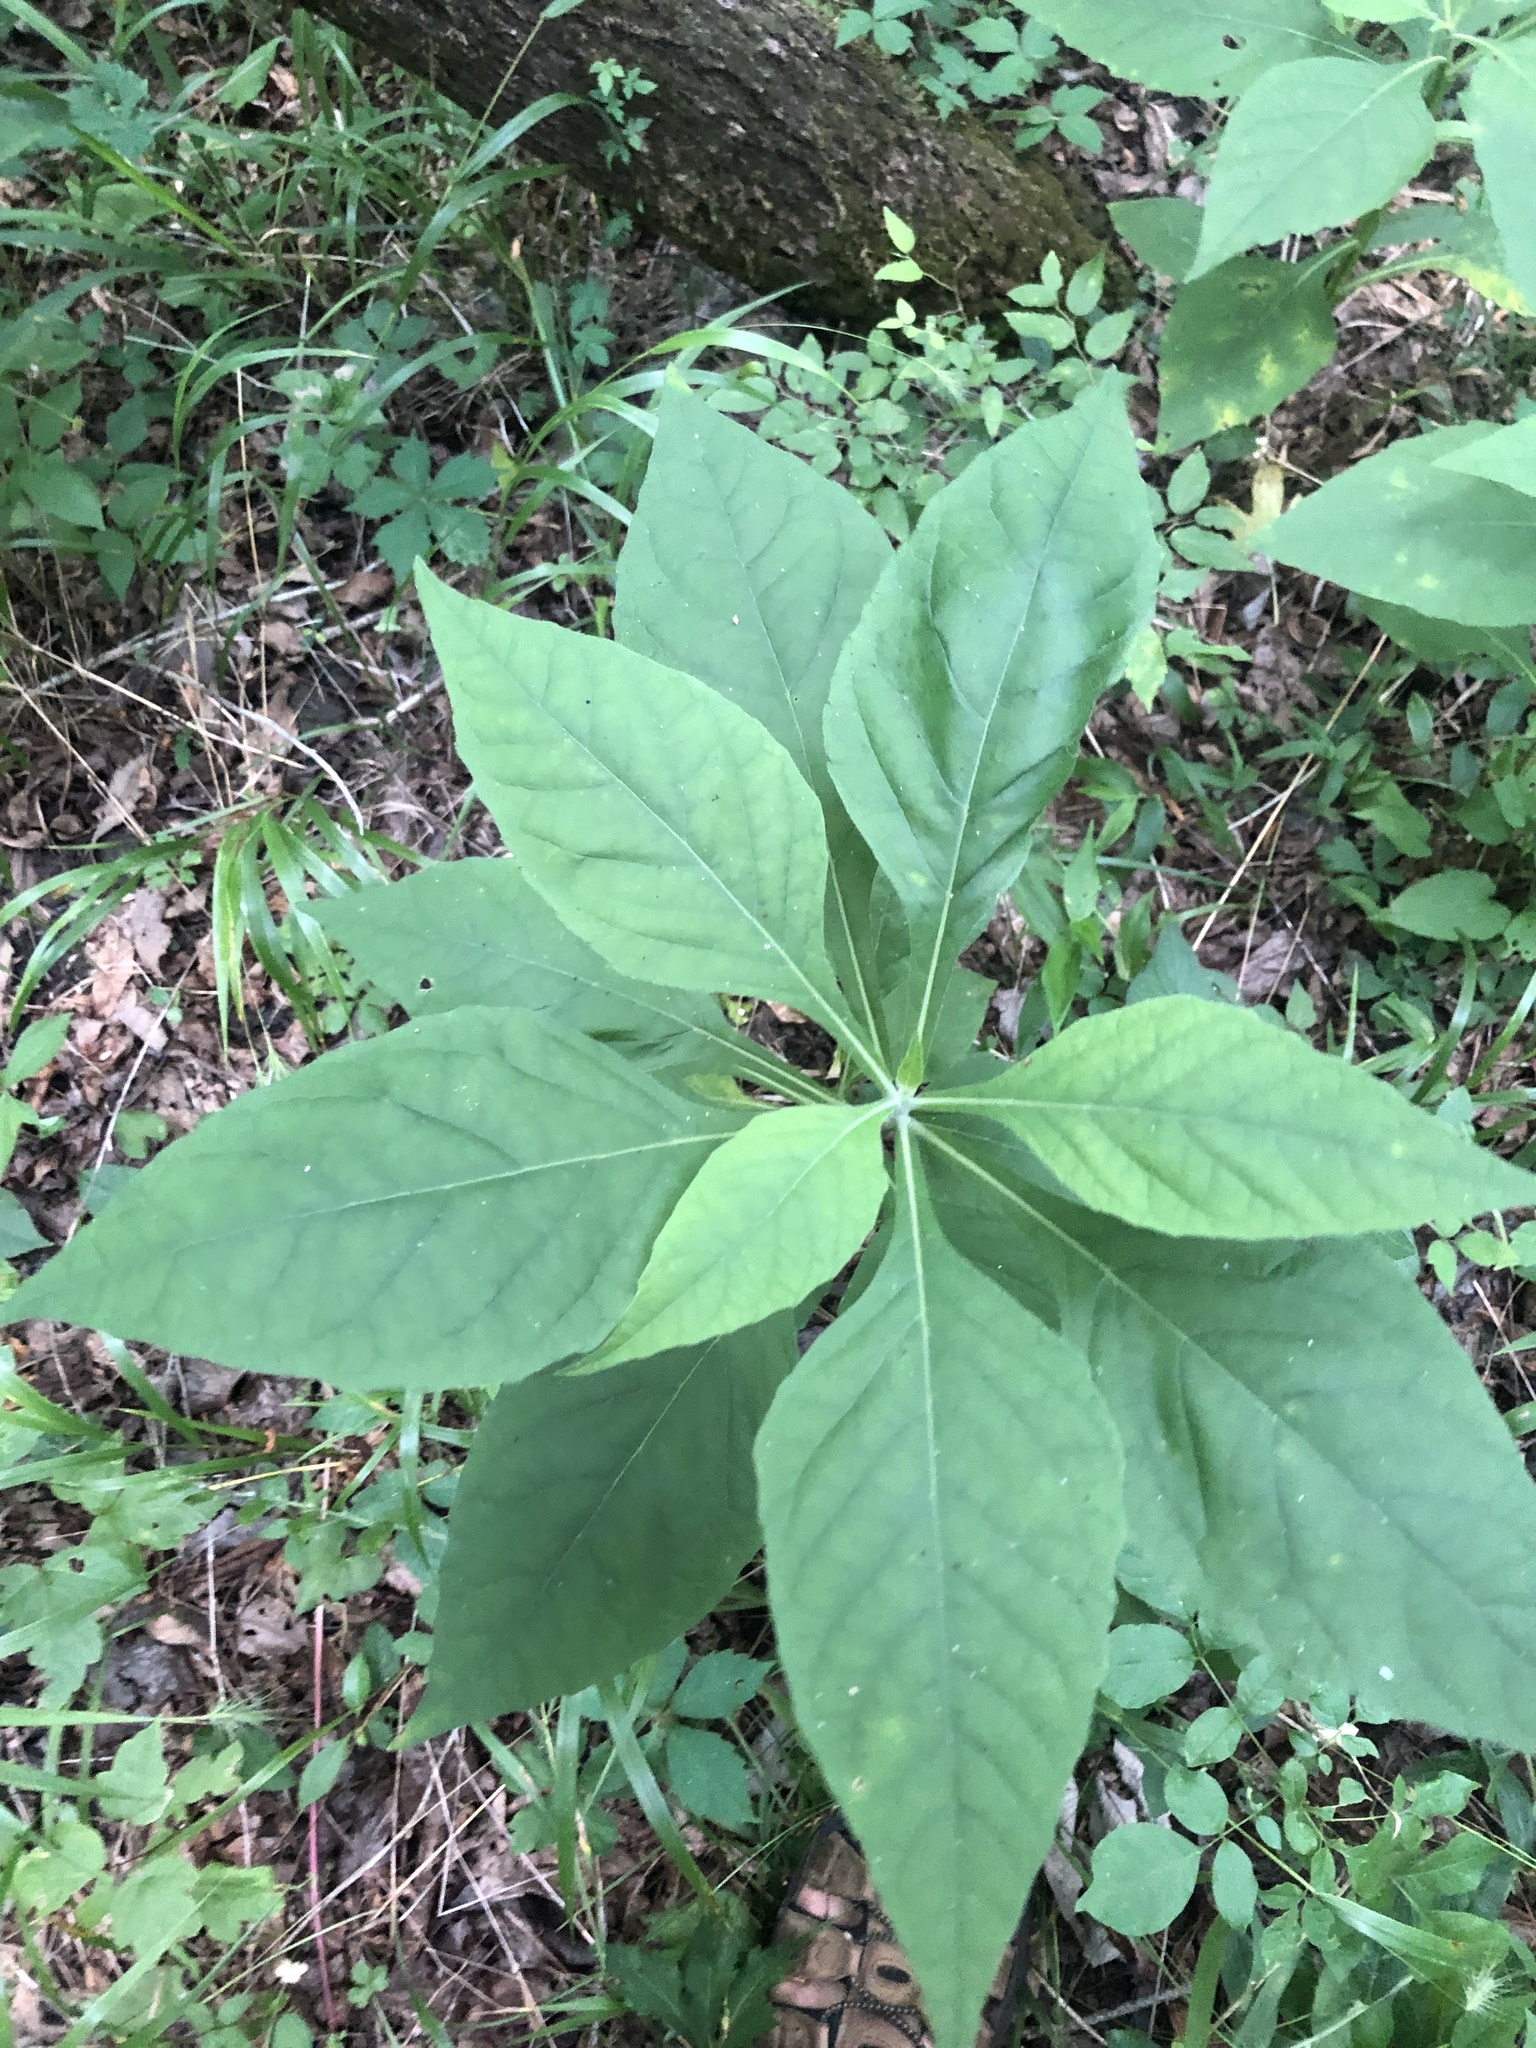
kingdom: Plantae
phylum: Tracheophyta
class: Magnoliopsida
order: Asterales
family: Asteraceae
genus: Verbesina
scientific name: Verbesina virginica
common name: Frostweed
